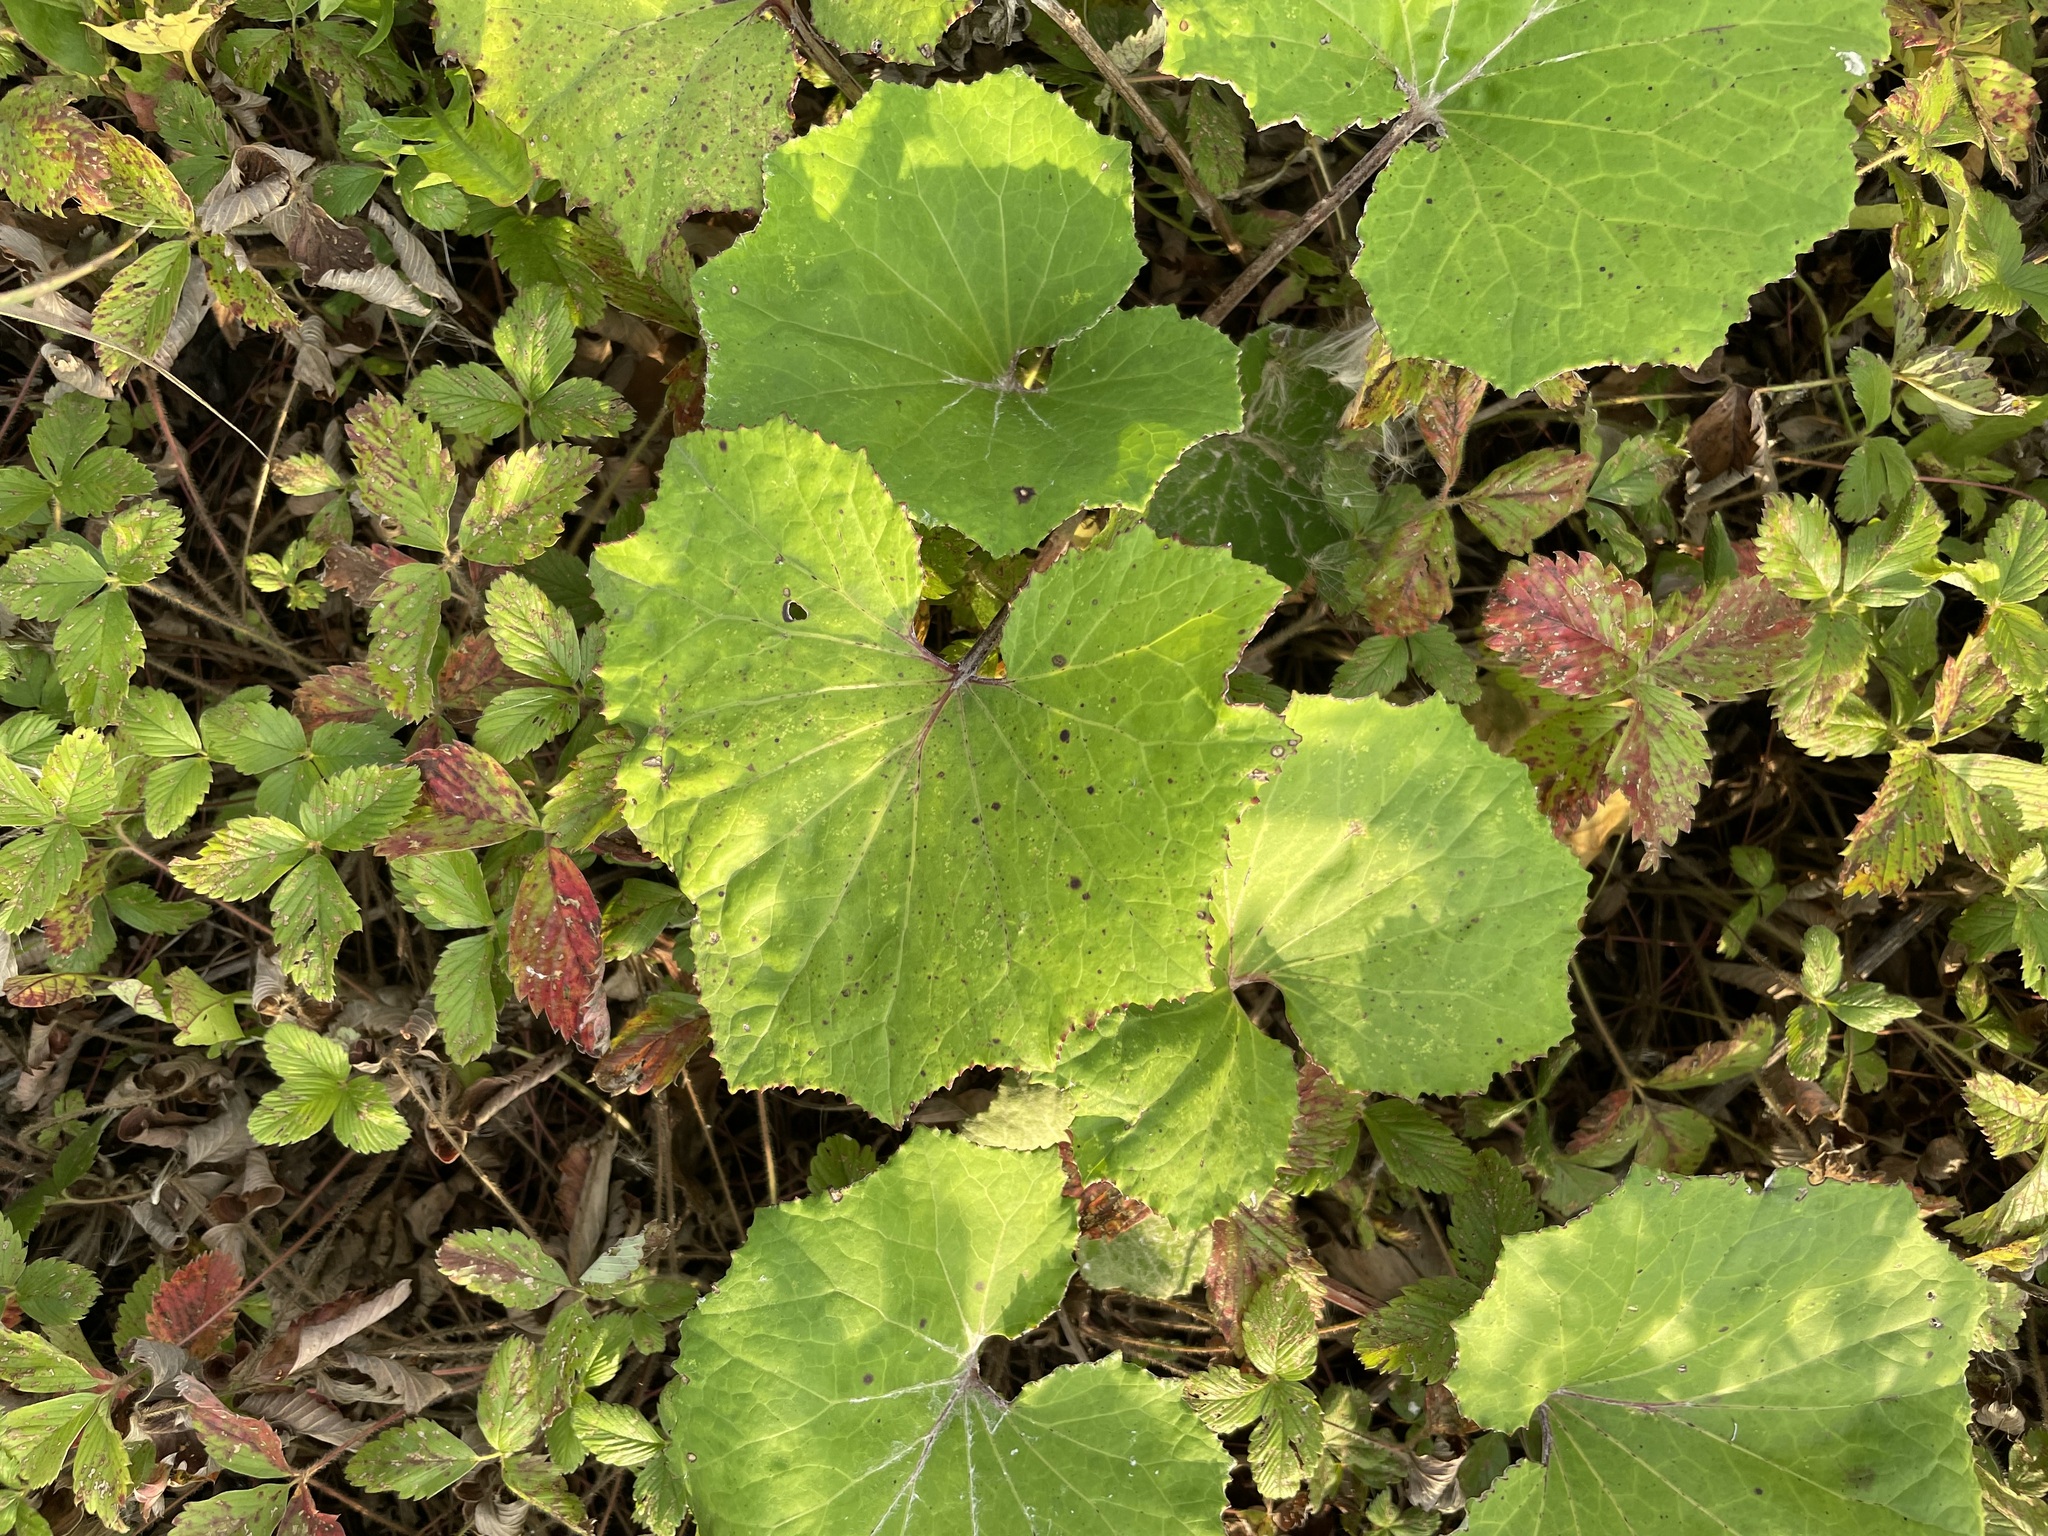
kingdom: Plantae
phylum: Tracheophyta
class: Magnoliopsida
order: Asterales
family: Asteraceae
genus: Tussilago
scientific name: Tussilago farfara
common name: Coltsfoot
